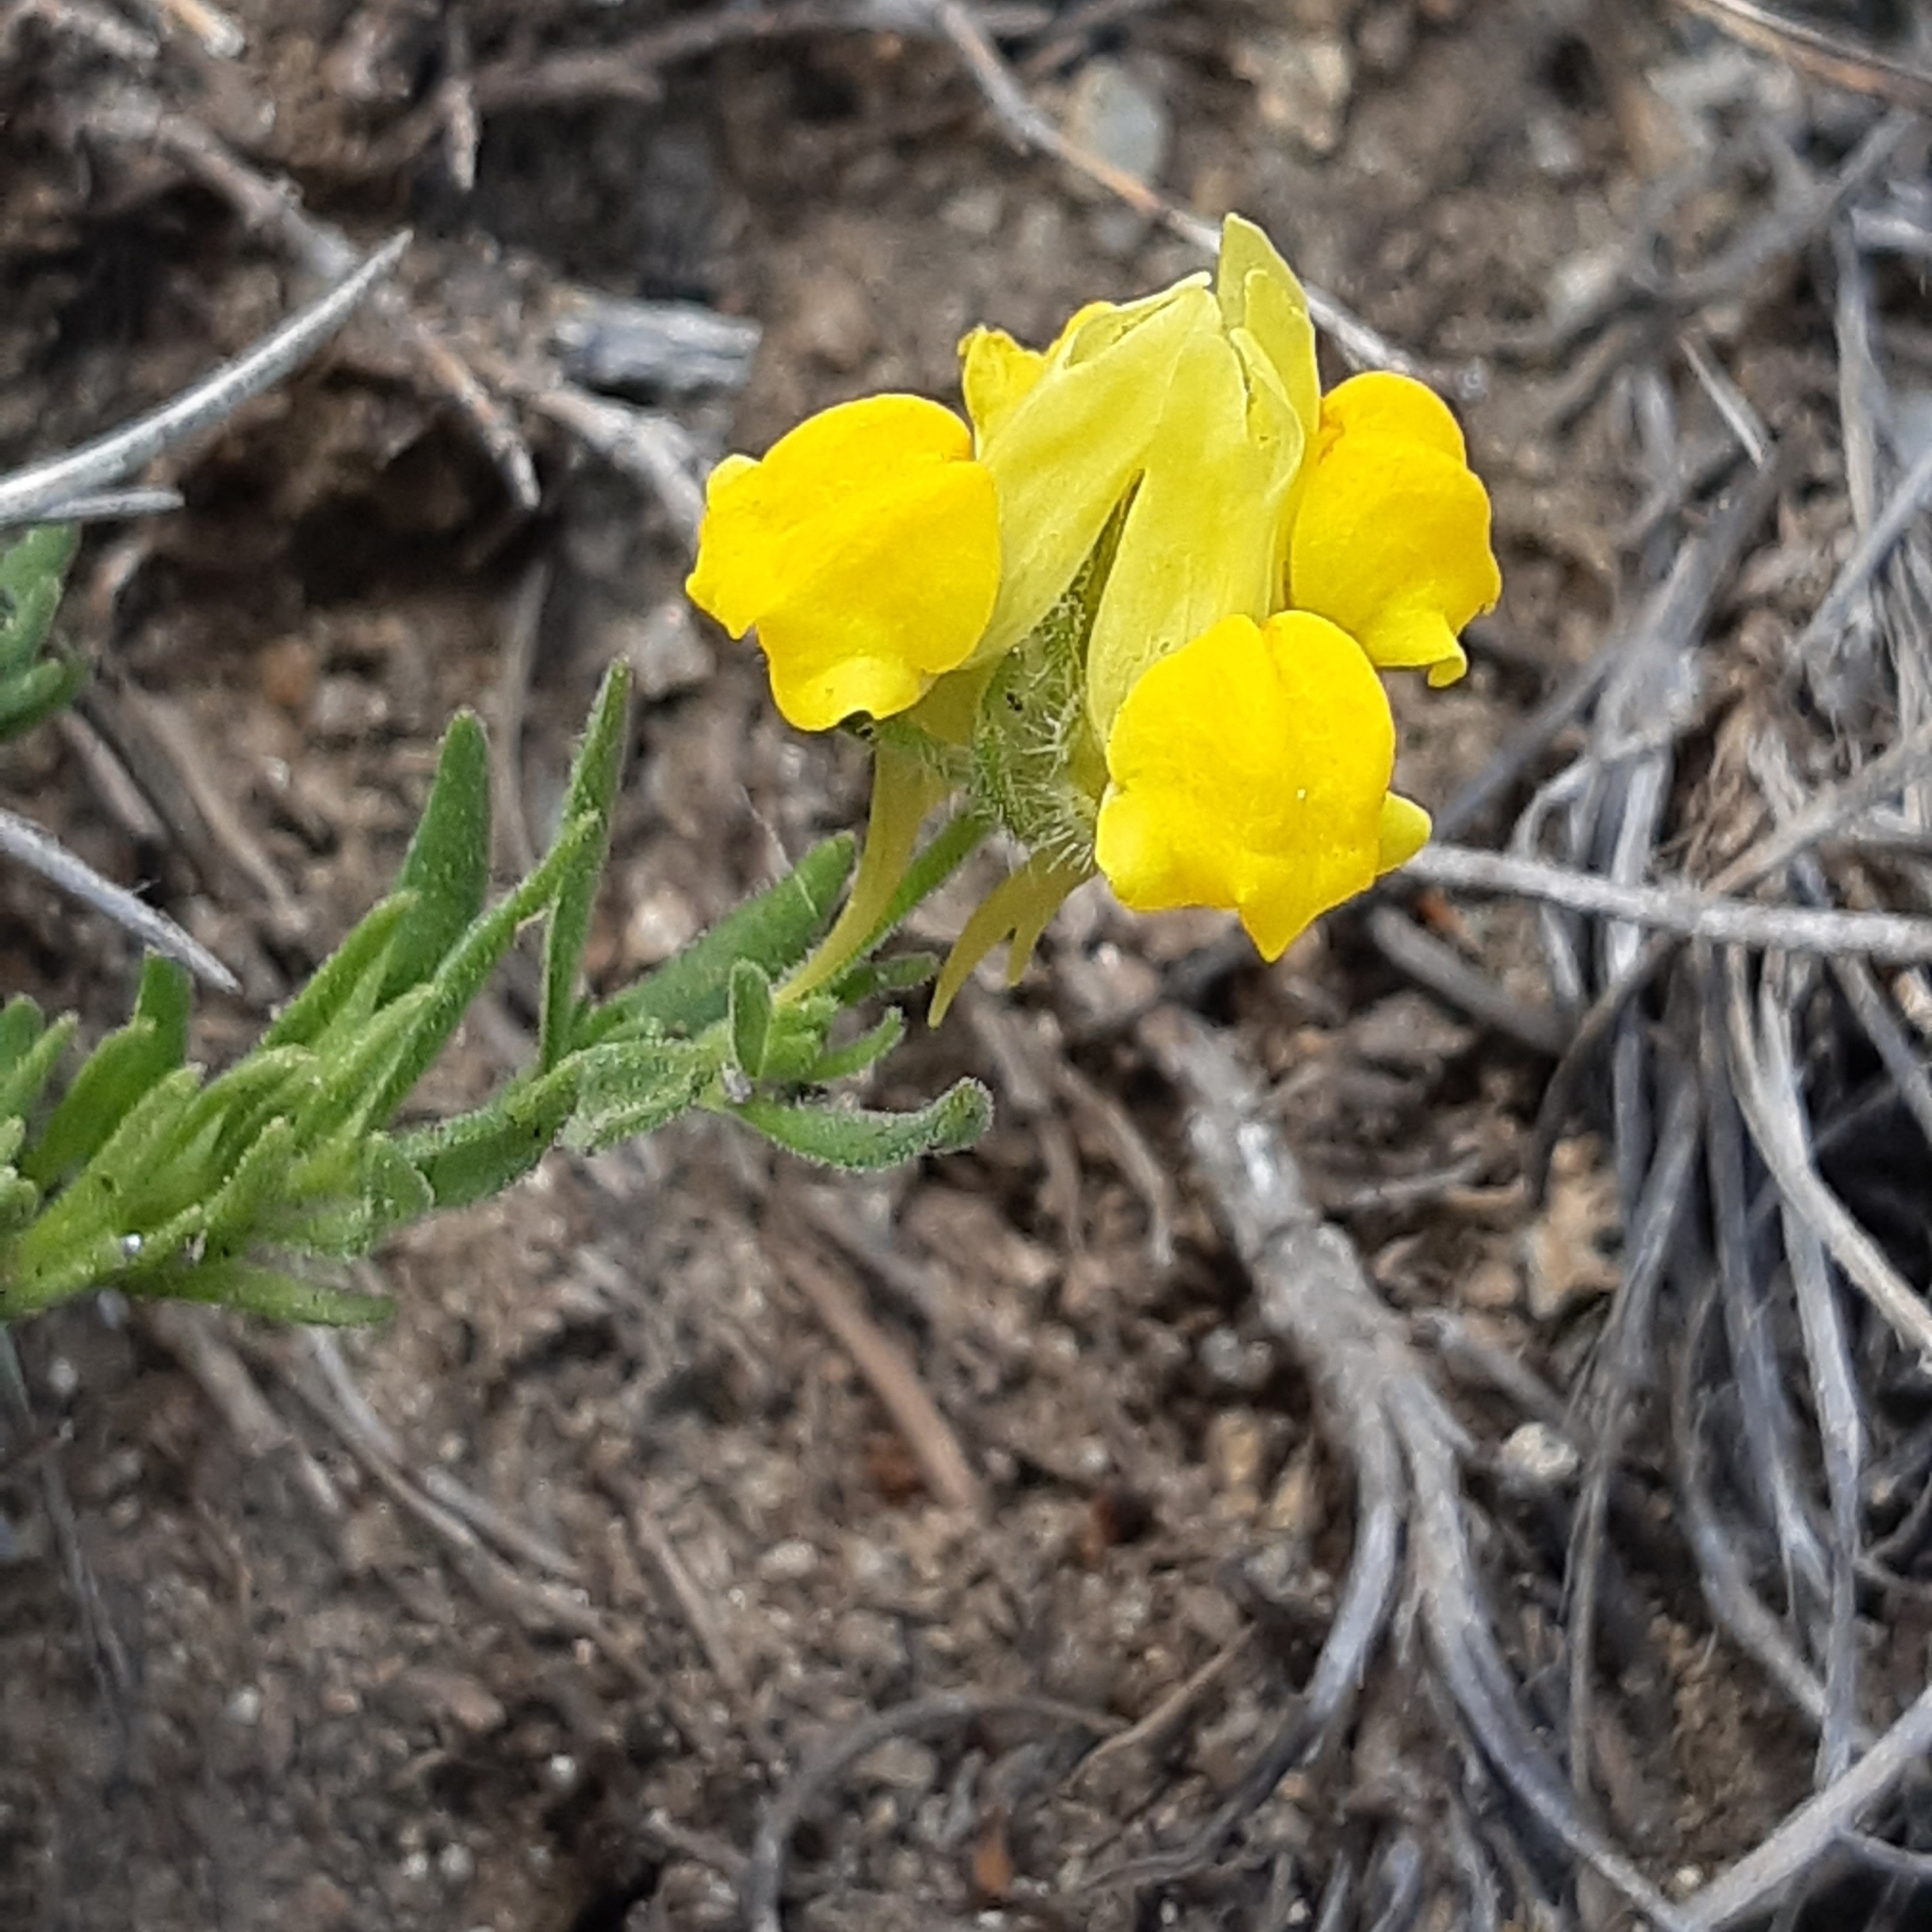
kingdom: Plantae
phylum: Tracheophyta
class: Magnoliopsida
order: Lamiales
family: Plantaginaceae
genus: Linaria
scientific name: Linaria saxatilis
